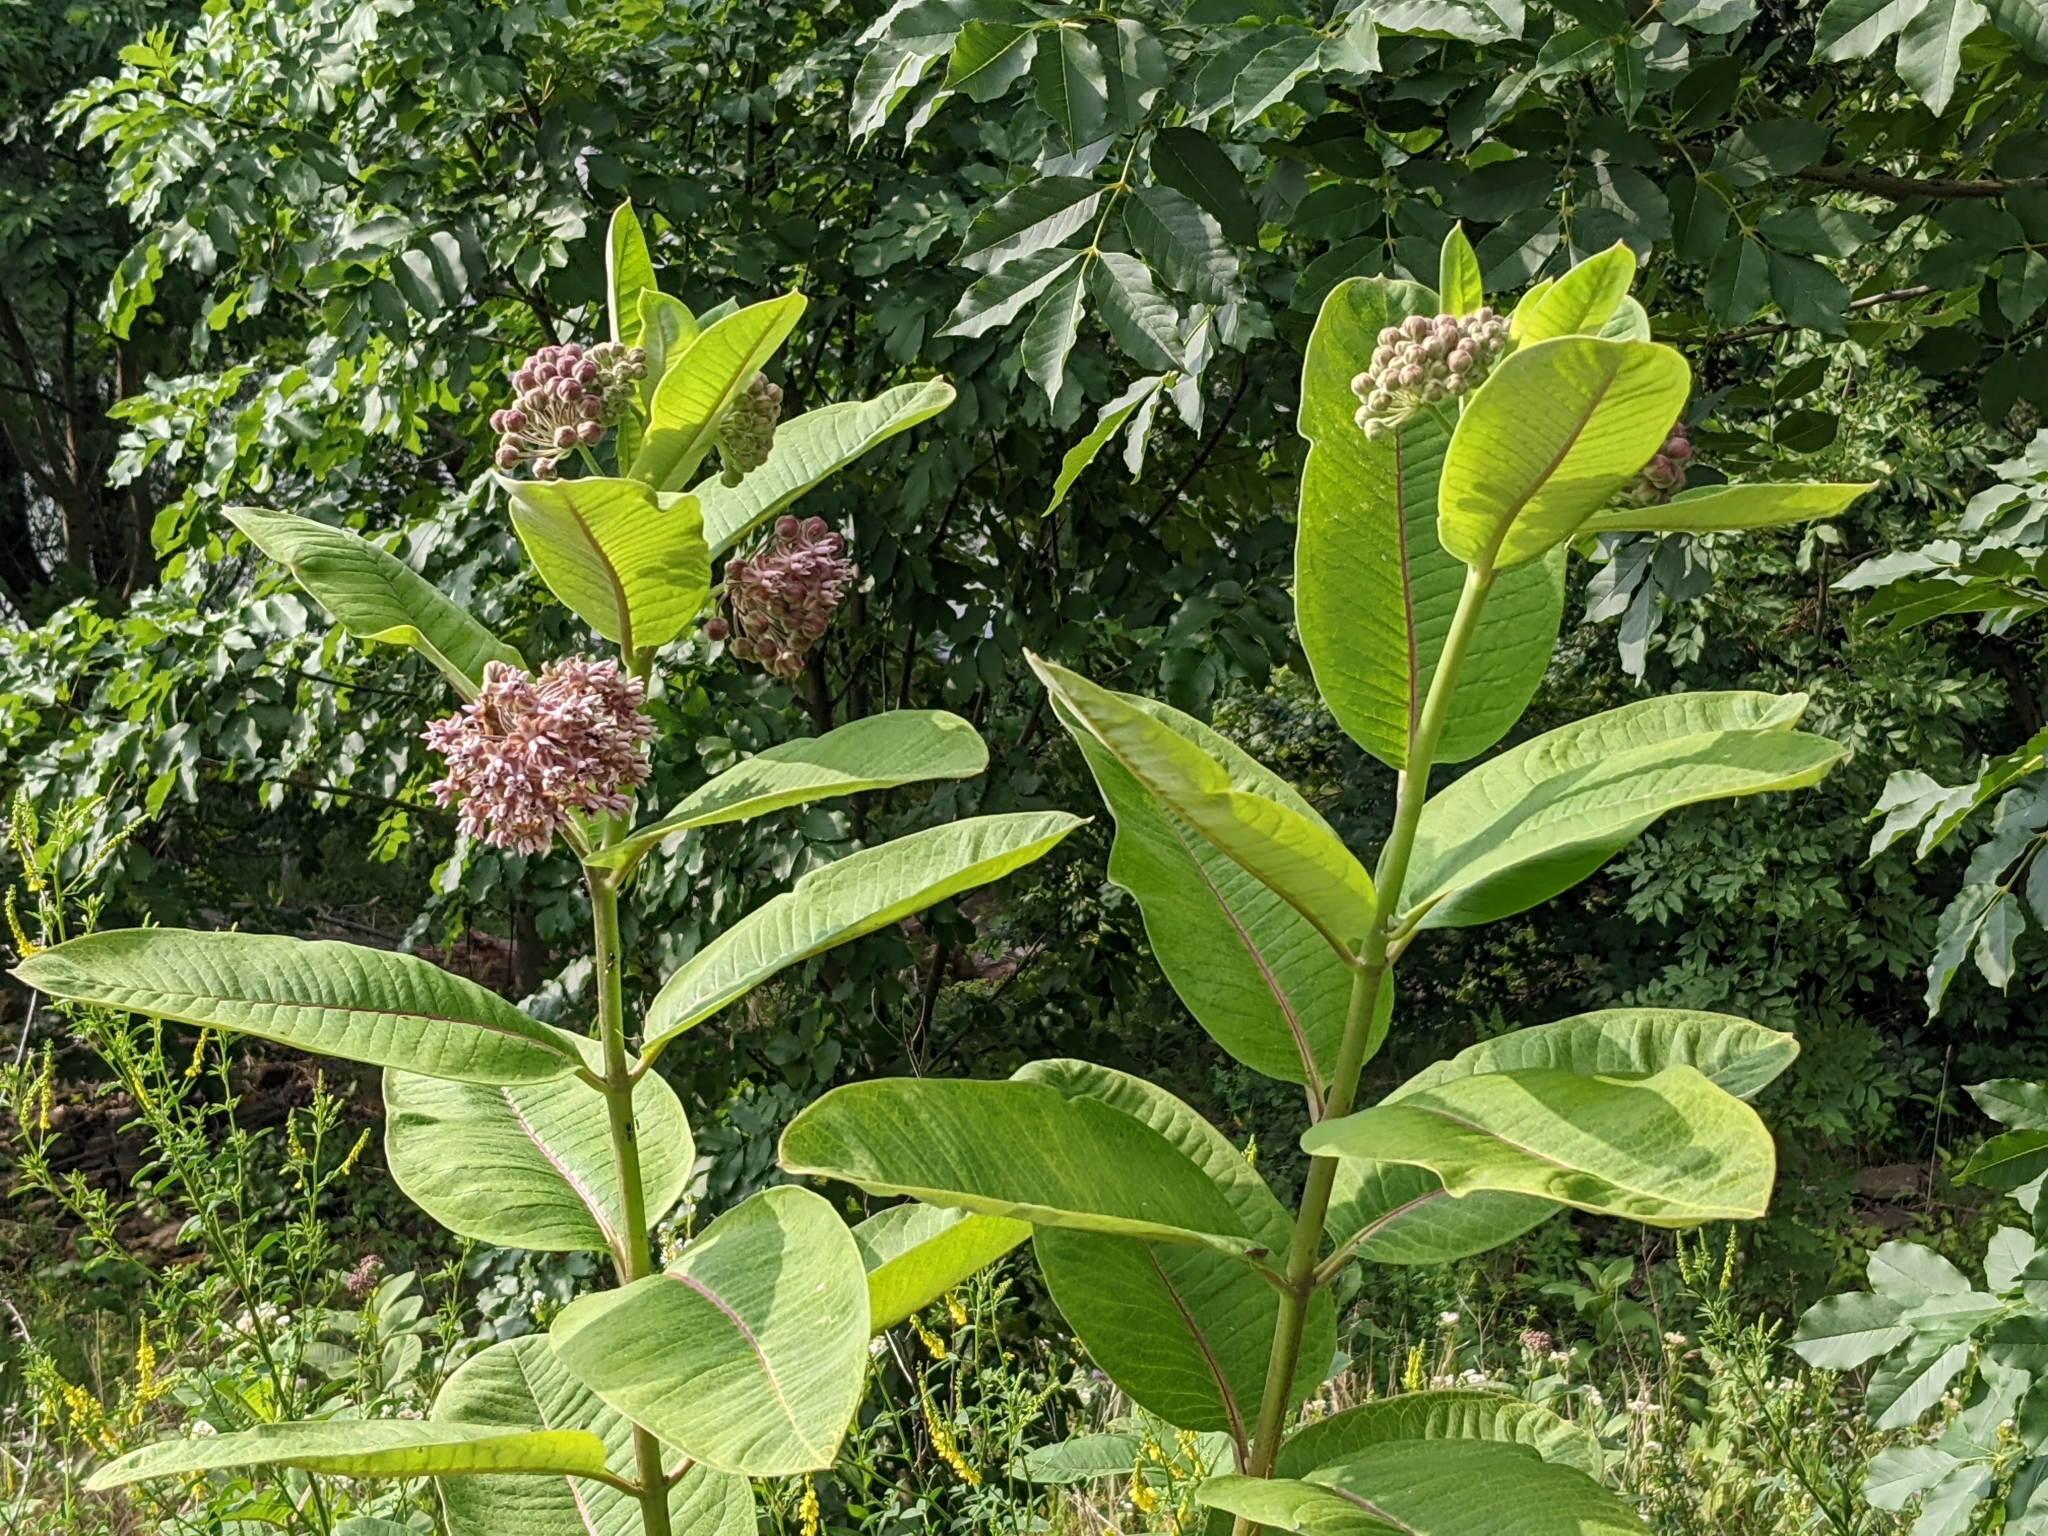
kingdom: Plantae
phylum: Tracheophyta
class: Magnoliopsida
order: Gentianales
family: Apocynaceae
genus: Asclepias
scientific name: Asclepias syriaca
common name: Common milkweed
